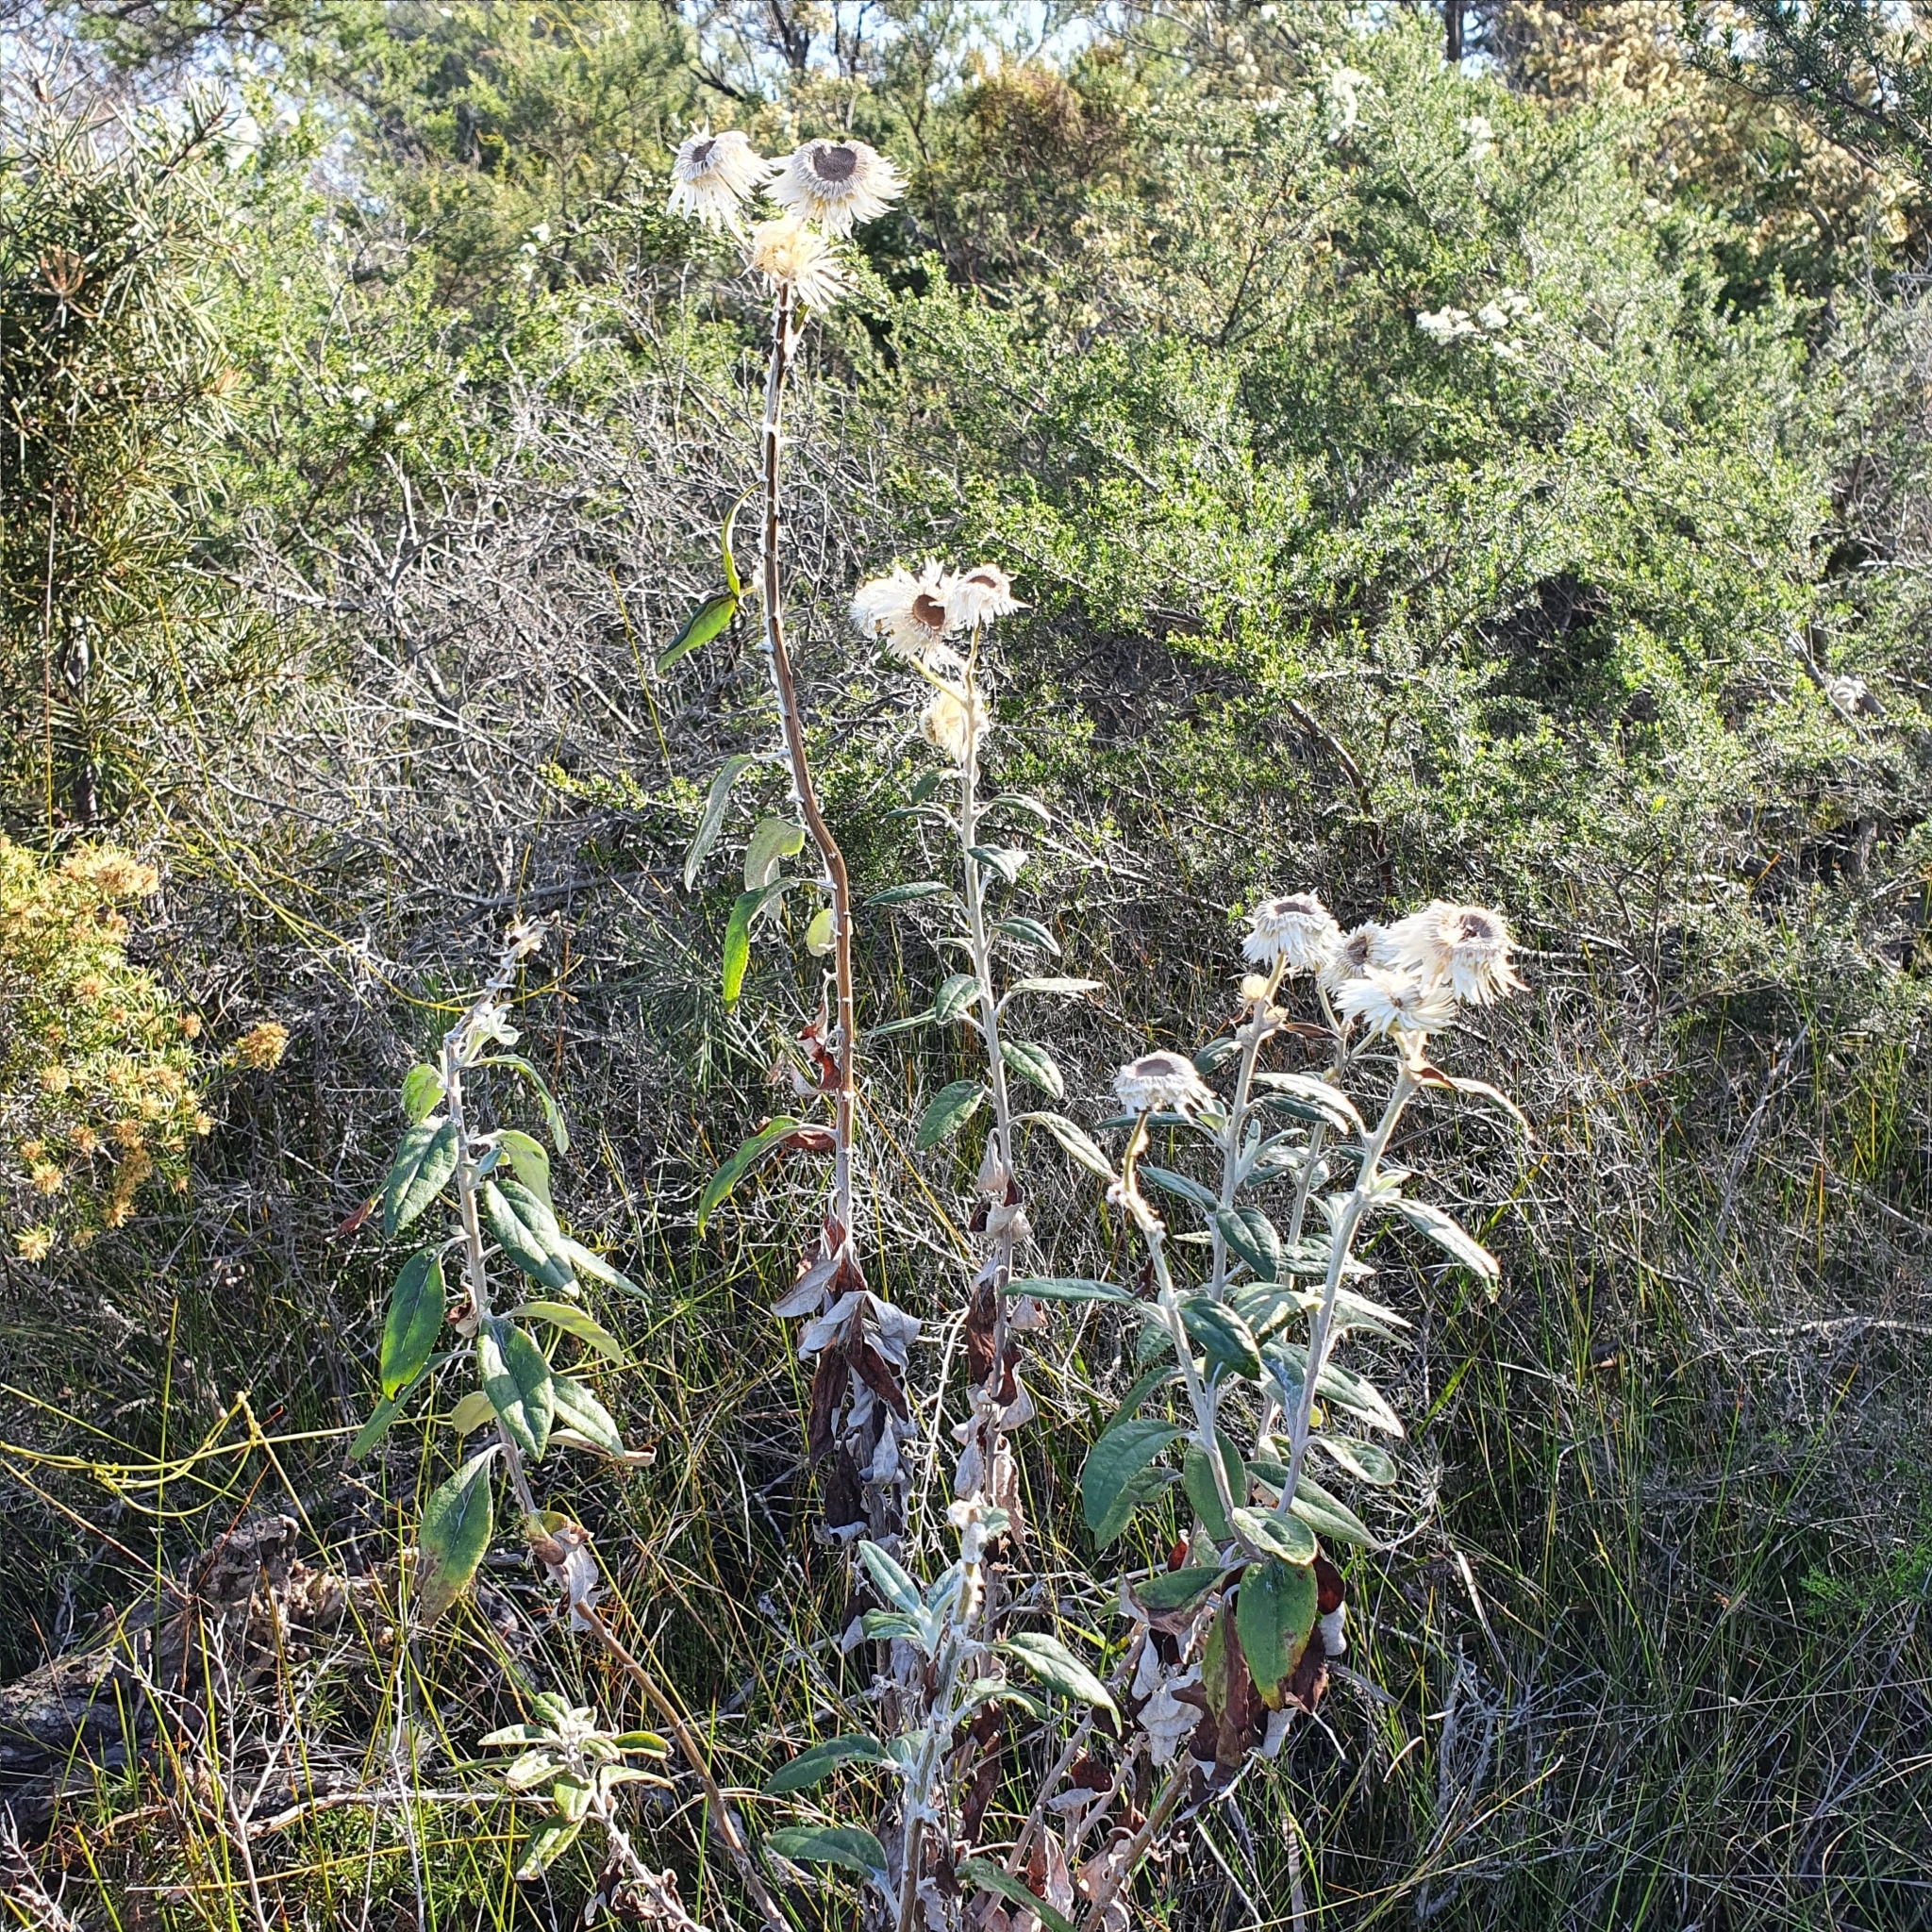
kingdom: Plantae
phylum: Tracheophyta
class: Magnoliopsida
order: Asterales
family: Asteraceae
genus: Leucozoma
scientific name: Leucozoma elatum
